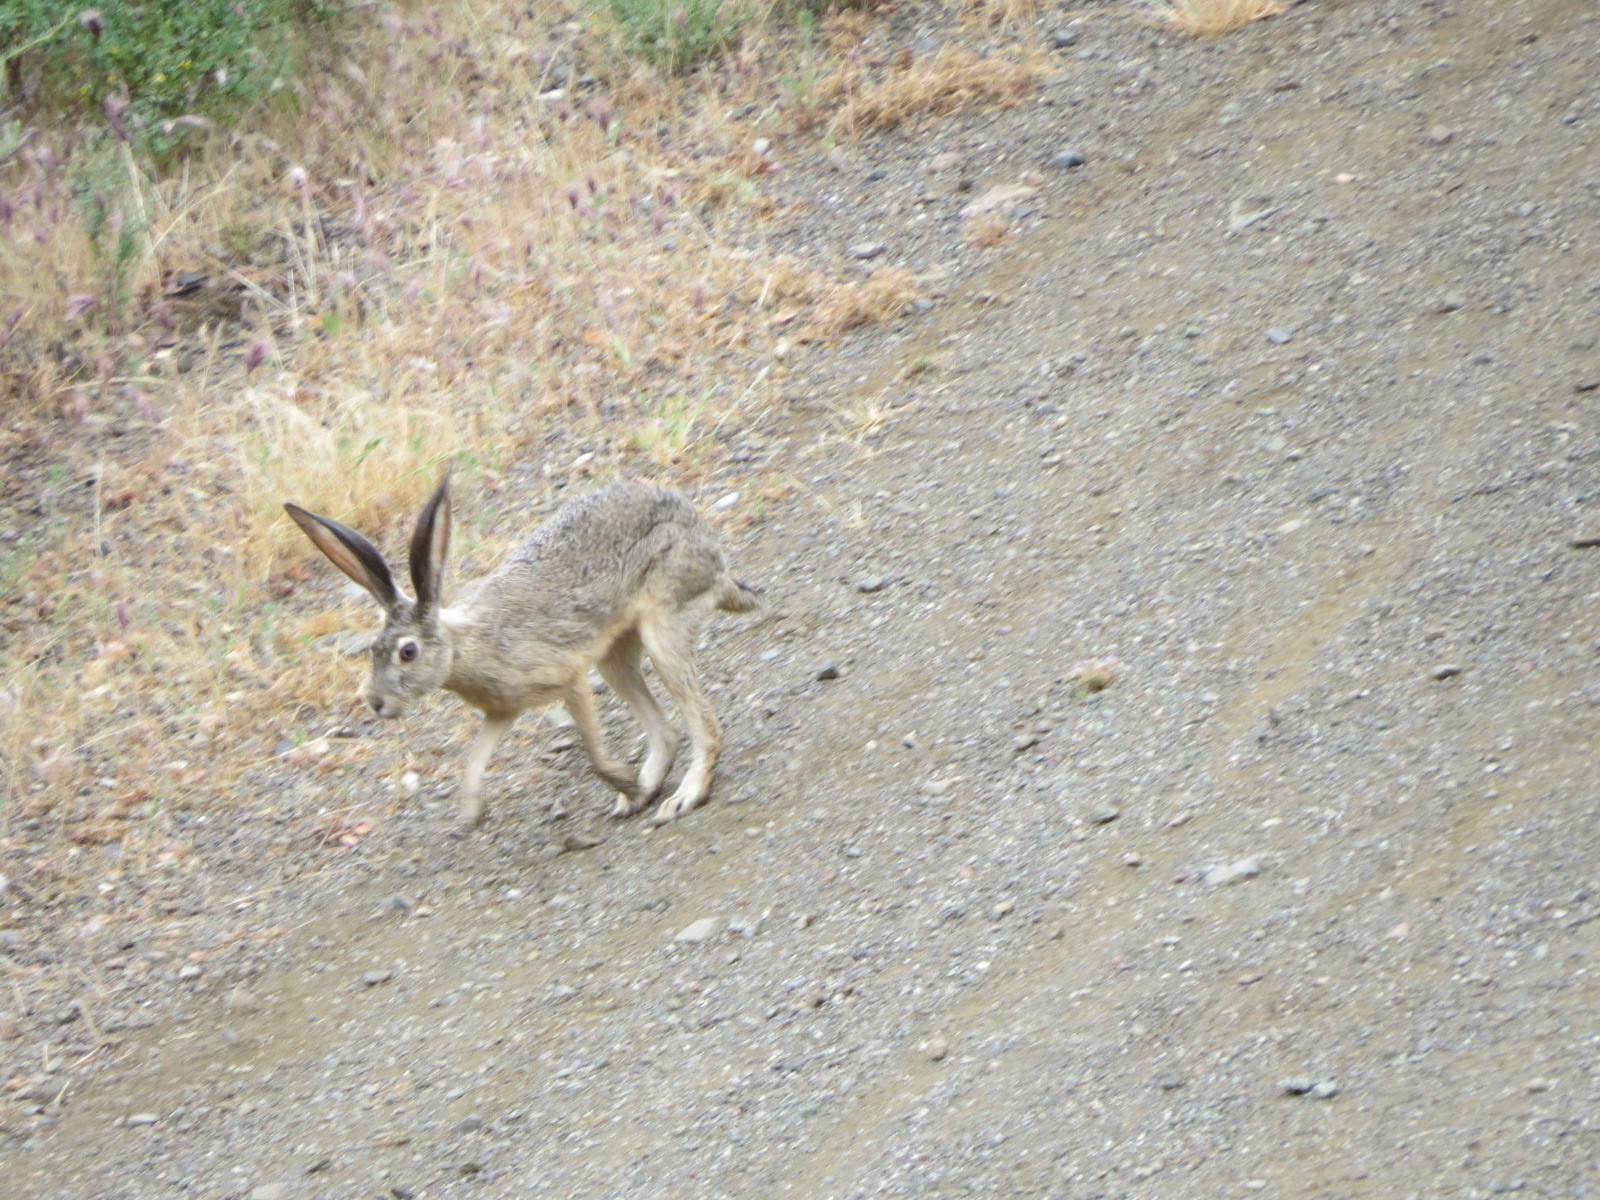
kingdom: Animalia
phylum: Chordata
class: Mammalia
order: Lagomorpha
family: Leporidae
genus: Lepus
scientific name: Lepus californicus
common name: Black-tailed jackrabbit
